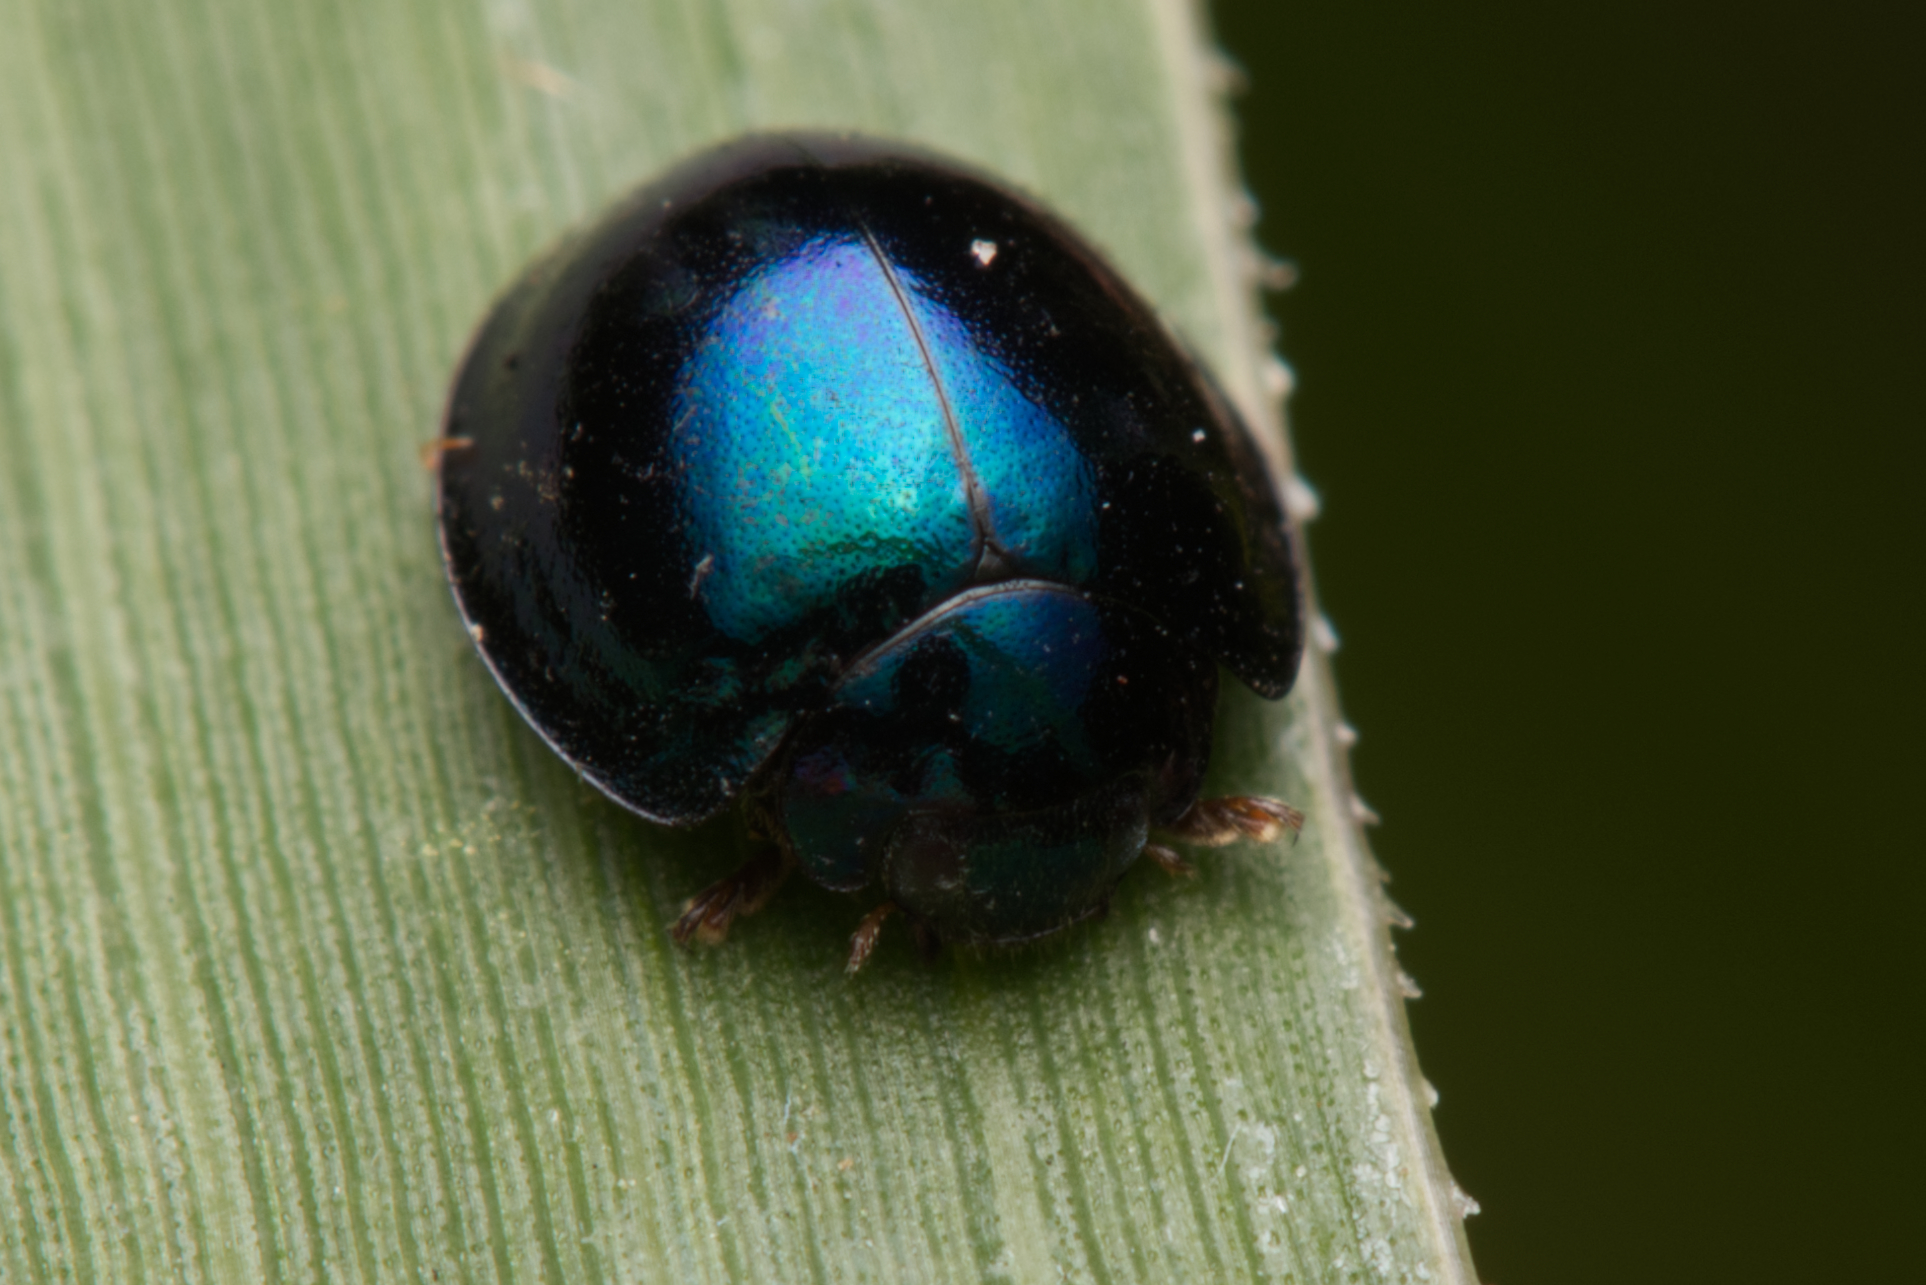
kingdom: Animalia
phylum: Arthropoda
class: Insecta
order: Coleoptera
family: Coccinellidae
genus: Halmus
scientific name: Halmus chalybeus
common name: Steel blue ladybird beetle
